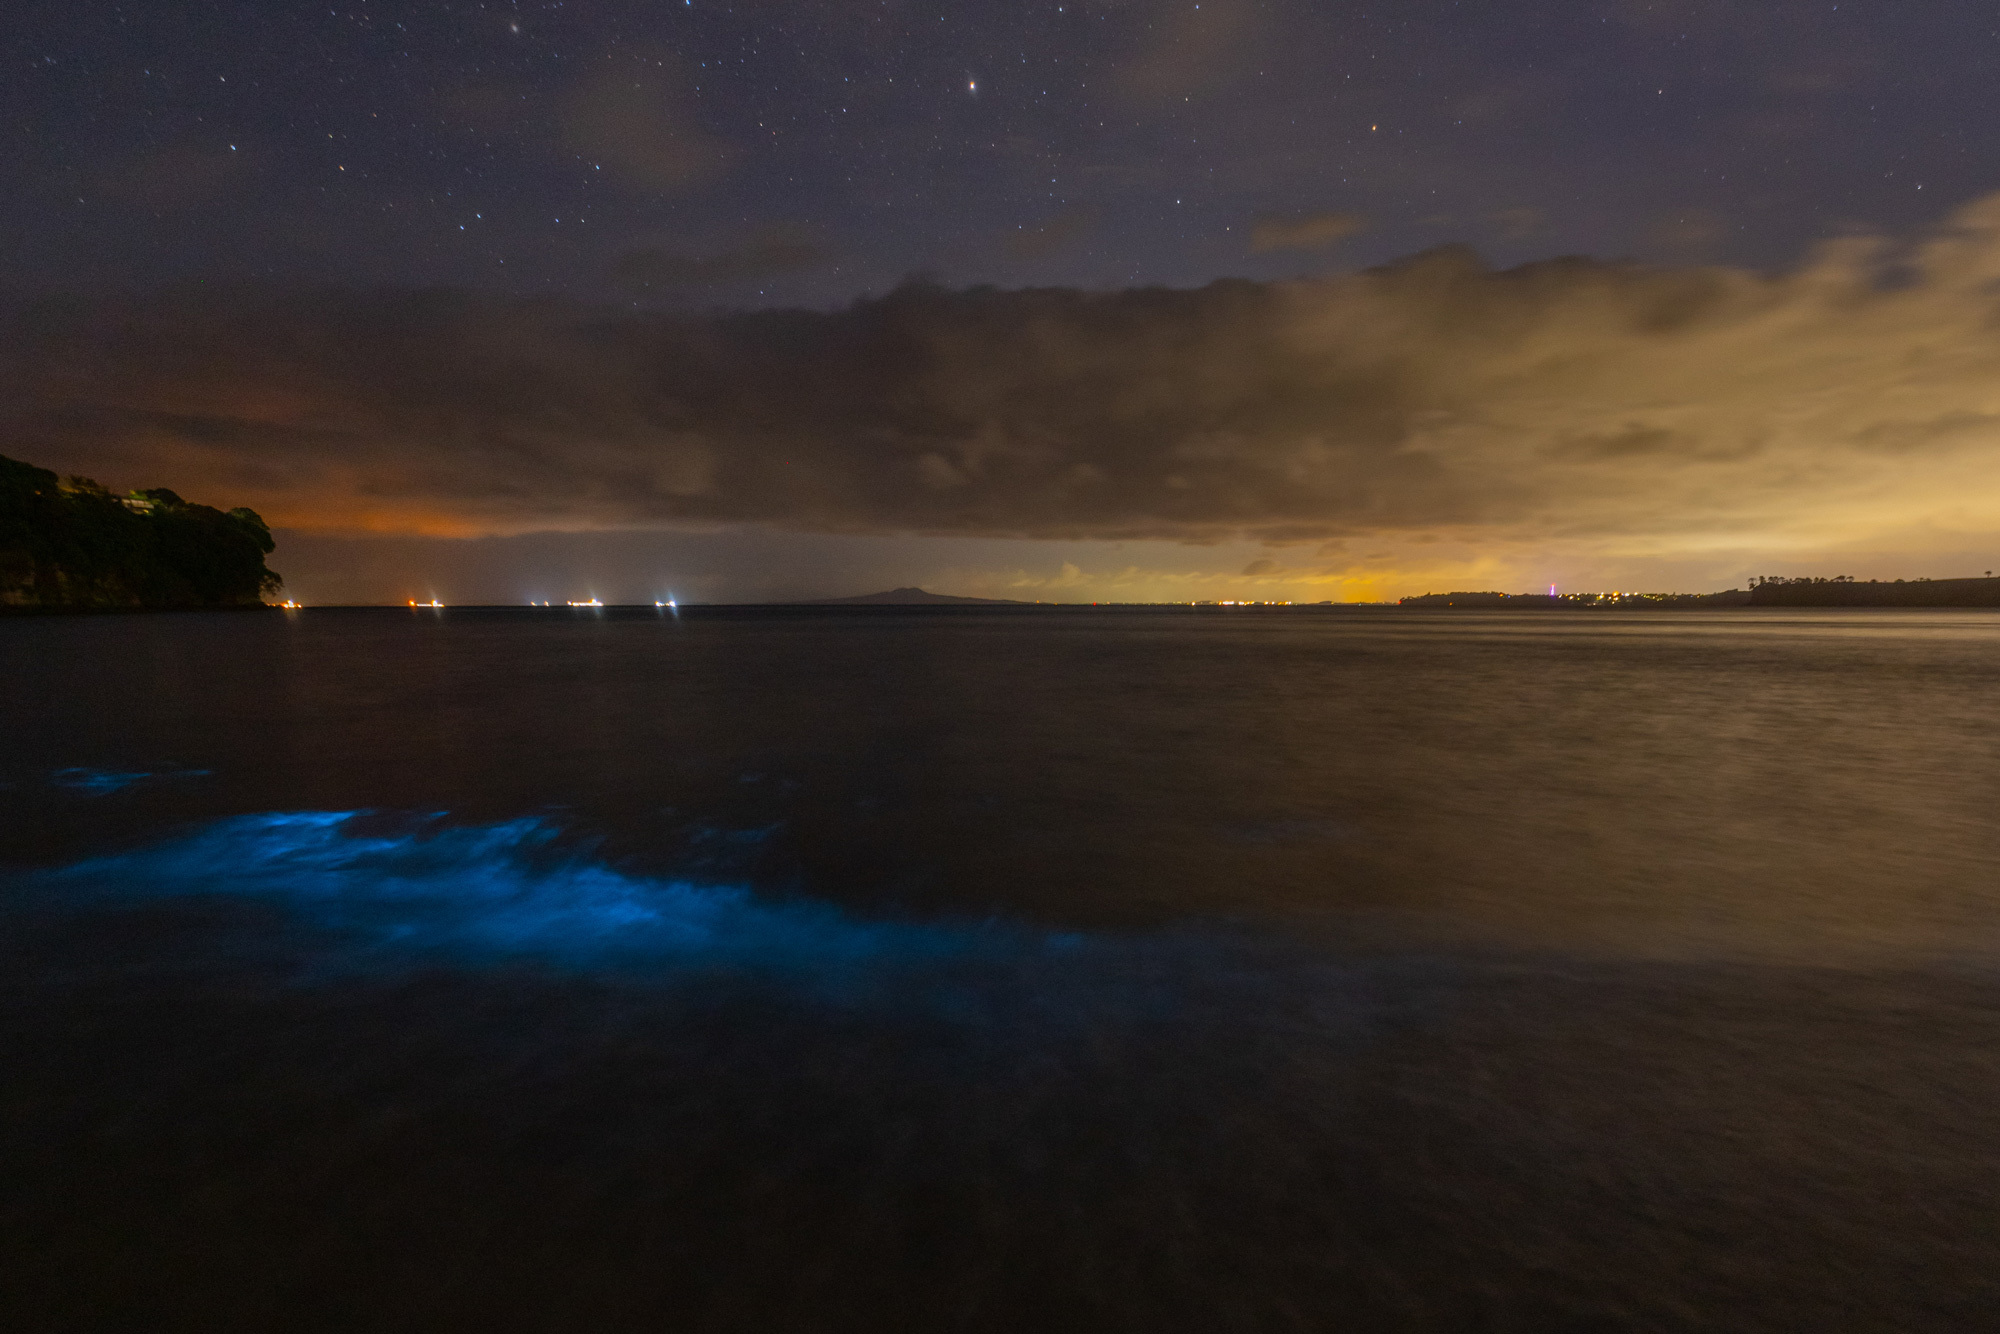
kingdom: Chromista
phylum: Myzozoa
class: Dinophyceae
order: Noctilucales
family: Noctilucaceae
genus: Noctiluca
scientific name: Noctiluca scintillans
